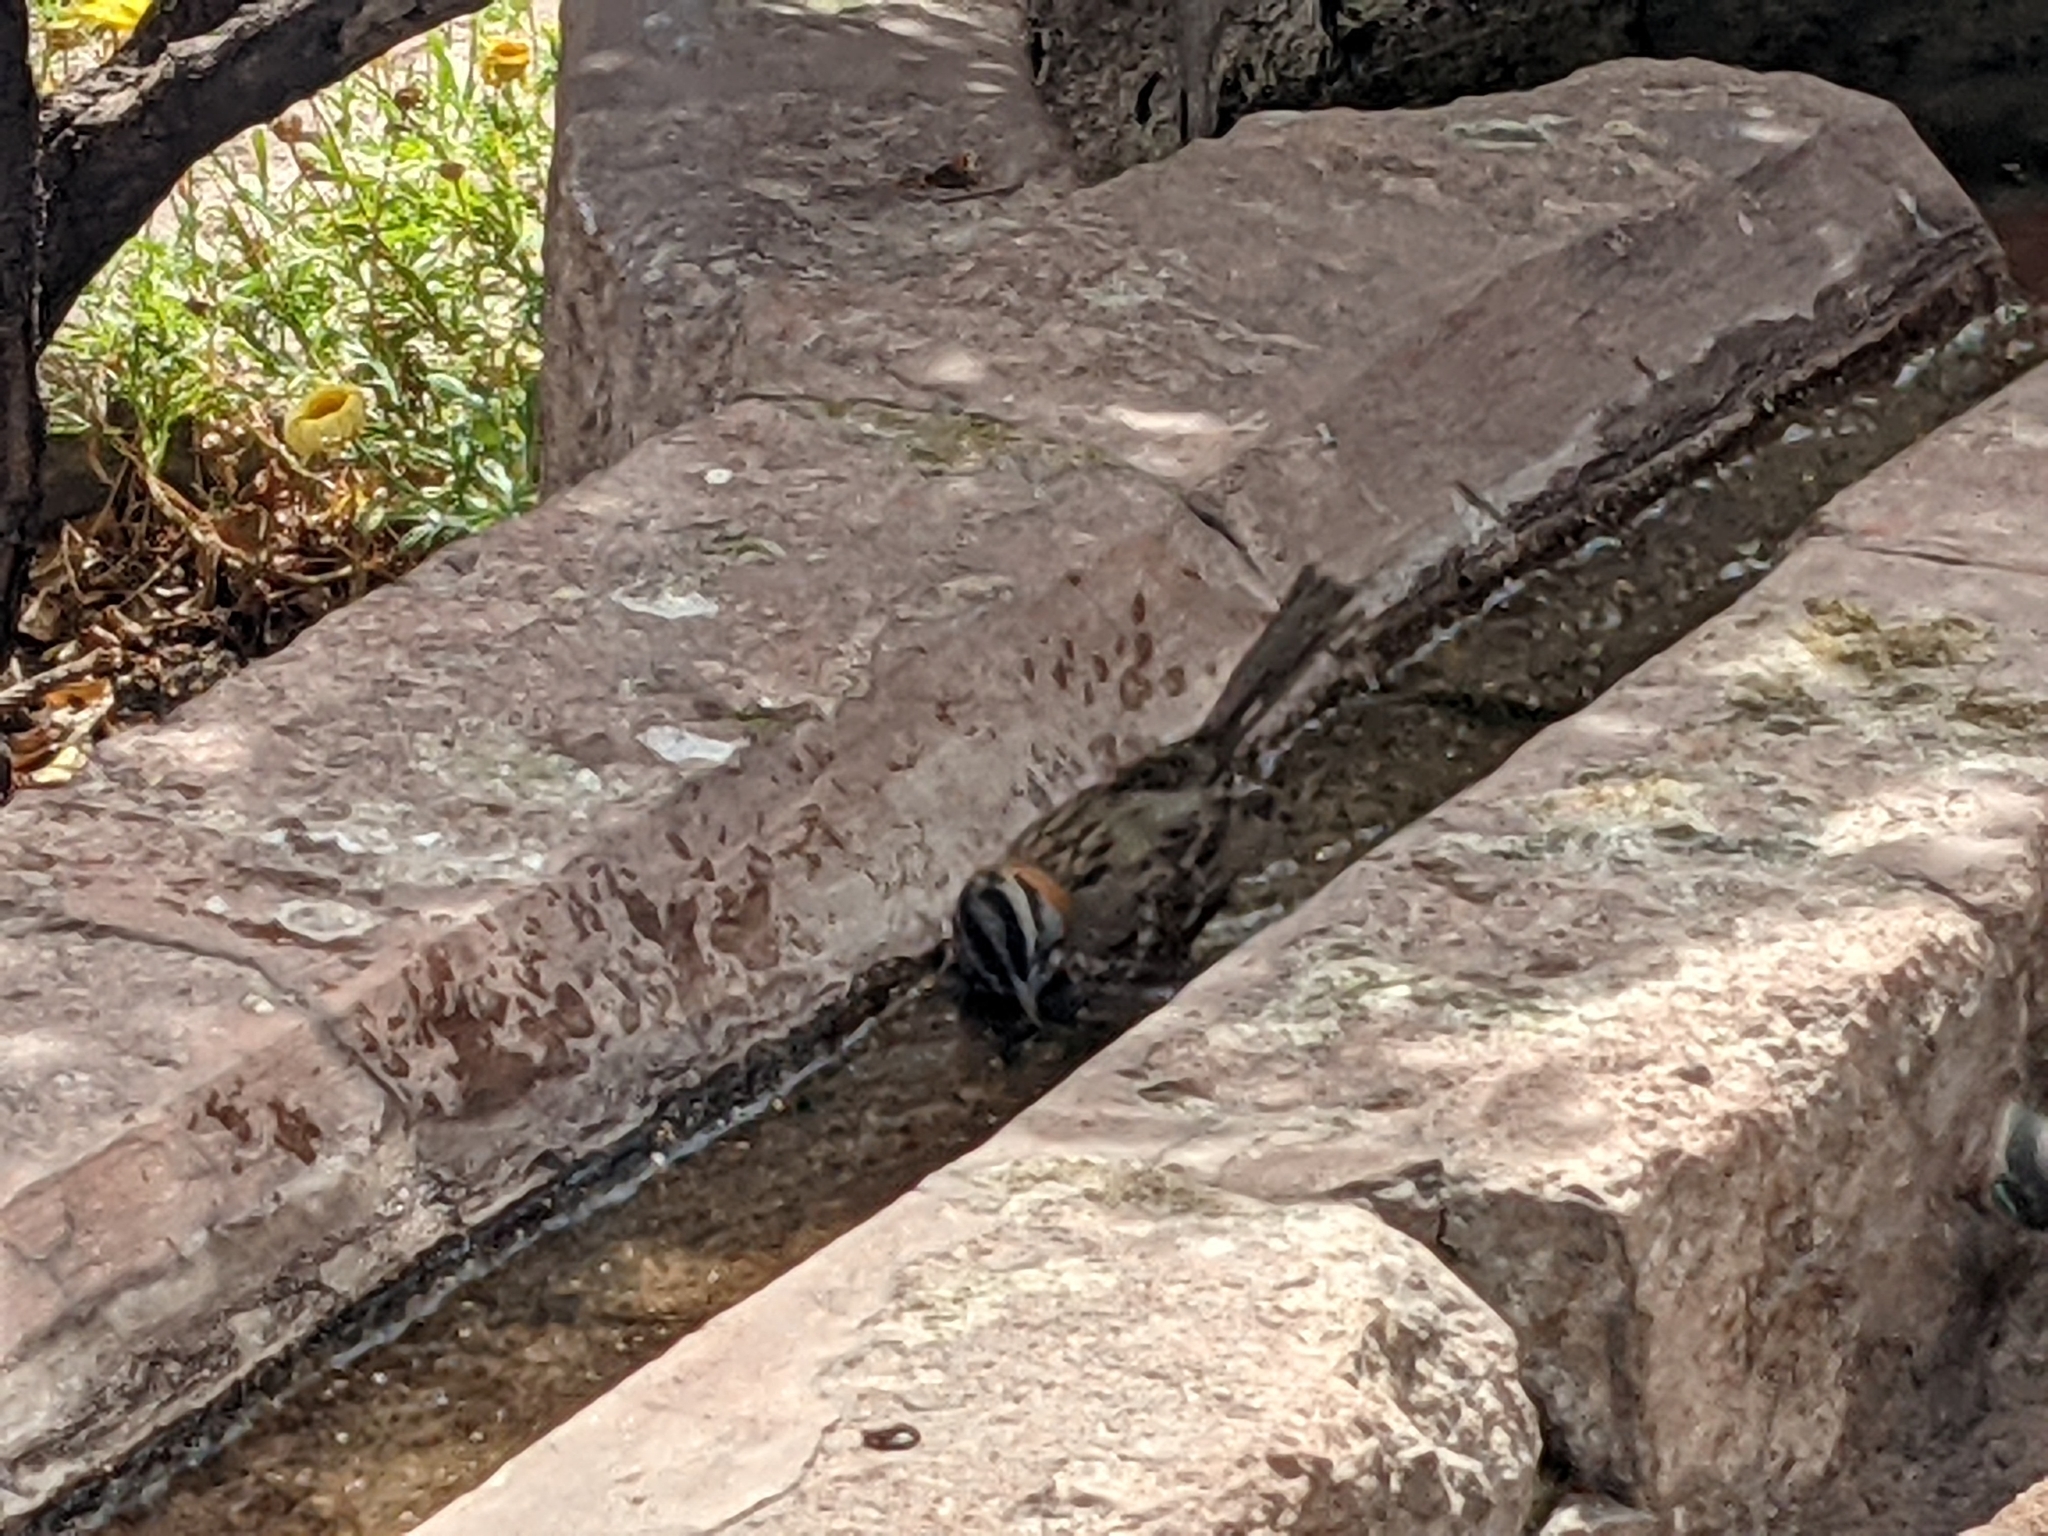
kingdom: Animalia
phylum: Chordata
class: Aves
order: Passeriformes
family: Passerellidae
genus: Zonotrichia
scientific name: Zonotrichia capensis
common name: Rufous-collared sparrow
